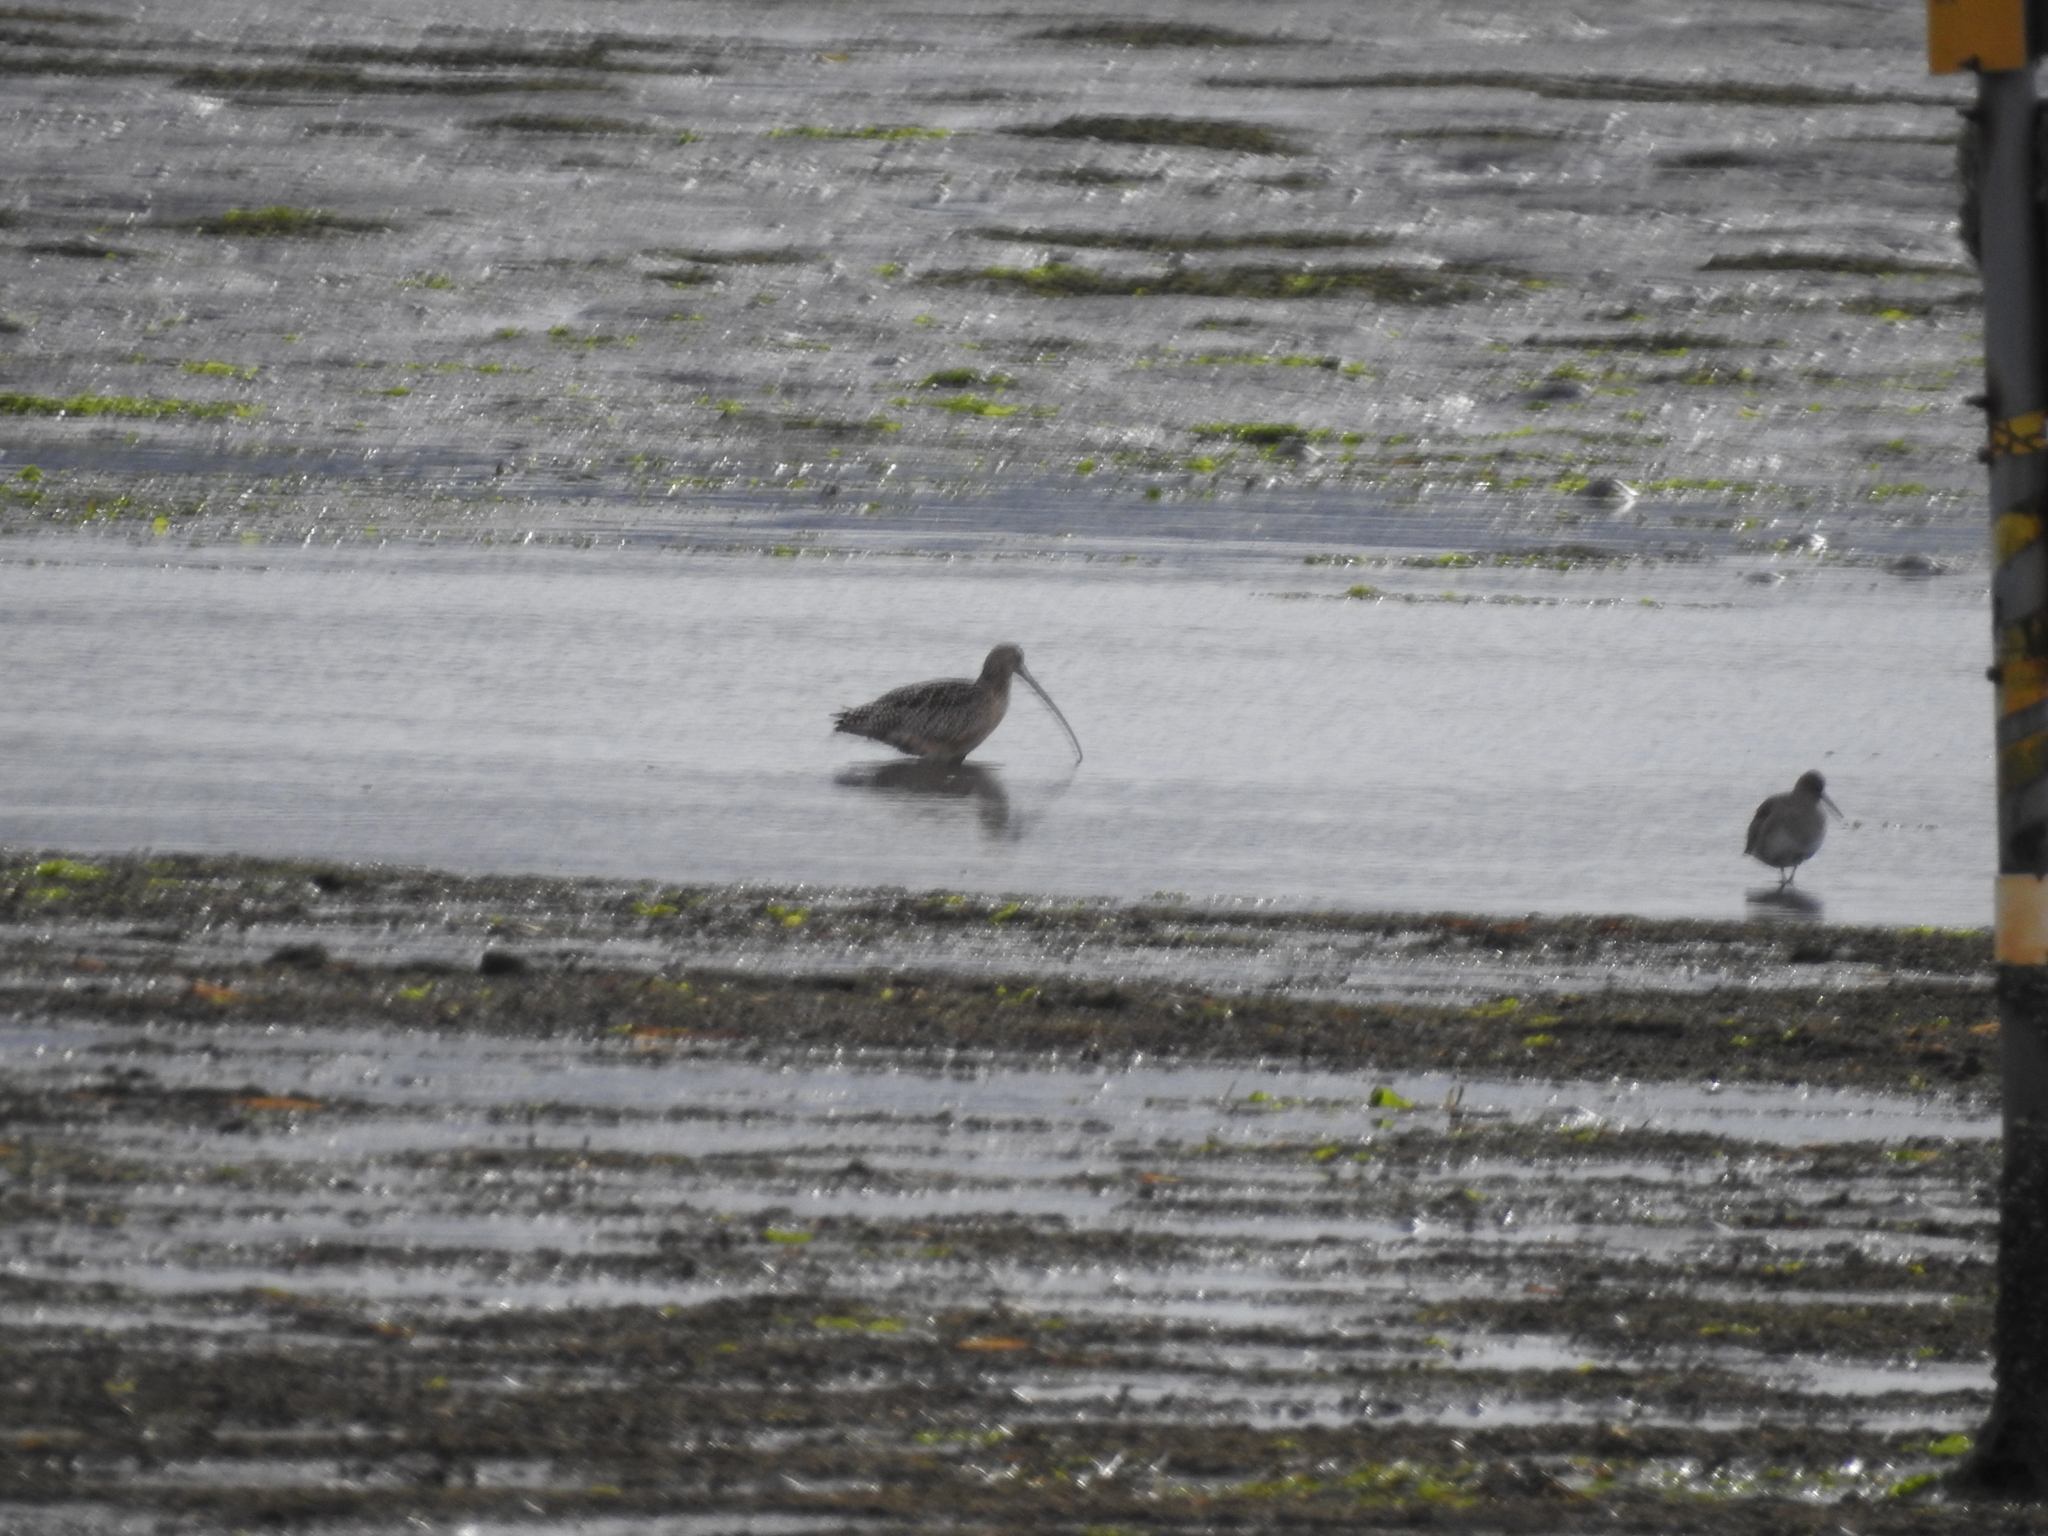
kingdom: Animalia
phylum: Chordata
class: Aves
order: Charadriiformes
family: Scolopacidae
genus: Numenius
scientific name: Numenius americanus
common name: Long-billed curlew
